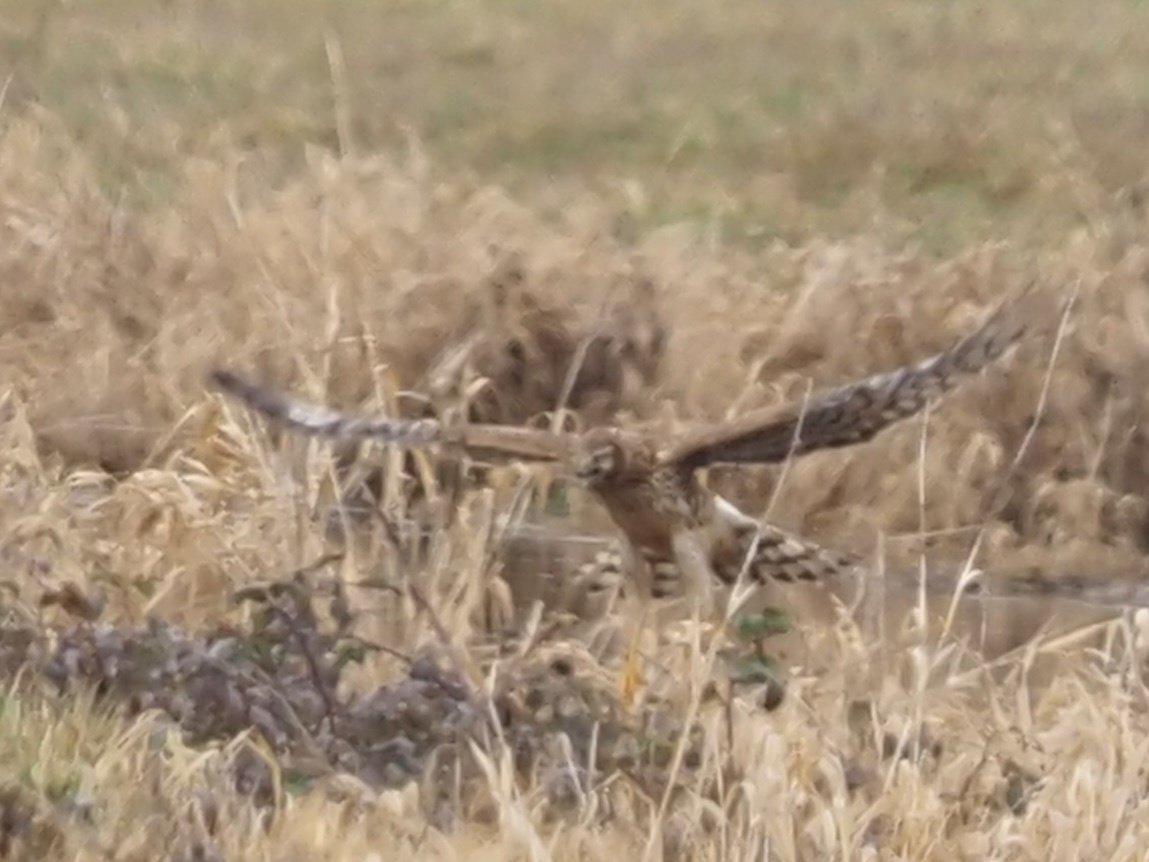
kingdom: Animalia
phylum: Chordata
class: Aves
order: Accipitriformes
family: Accipitridae
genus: Circus
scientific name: Circus cyaneus
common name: Hen harrier
